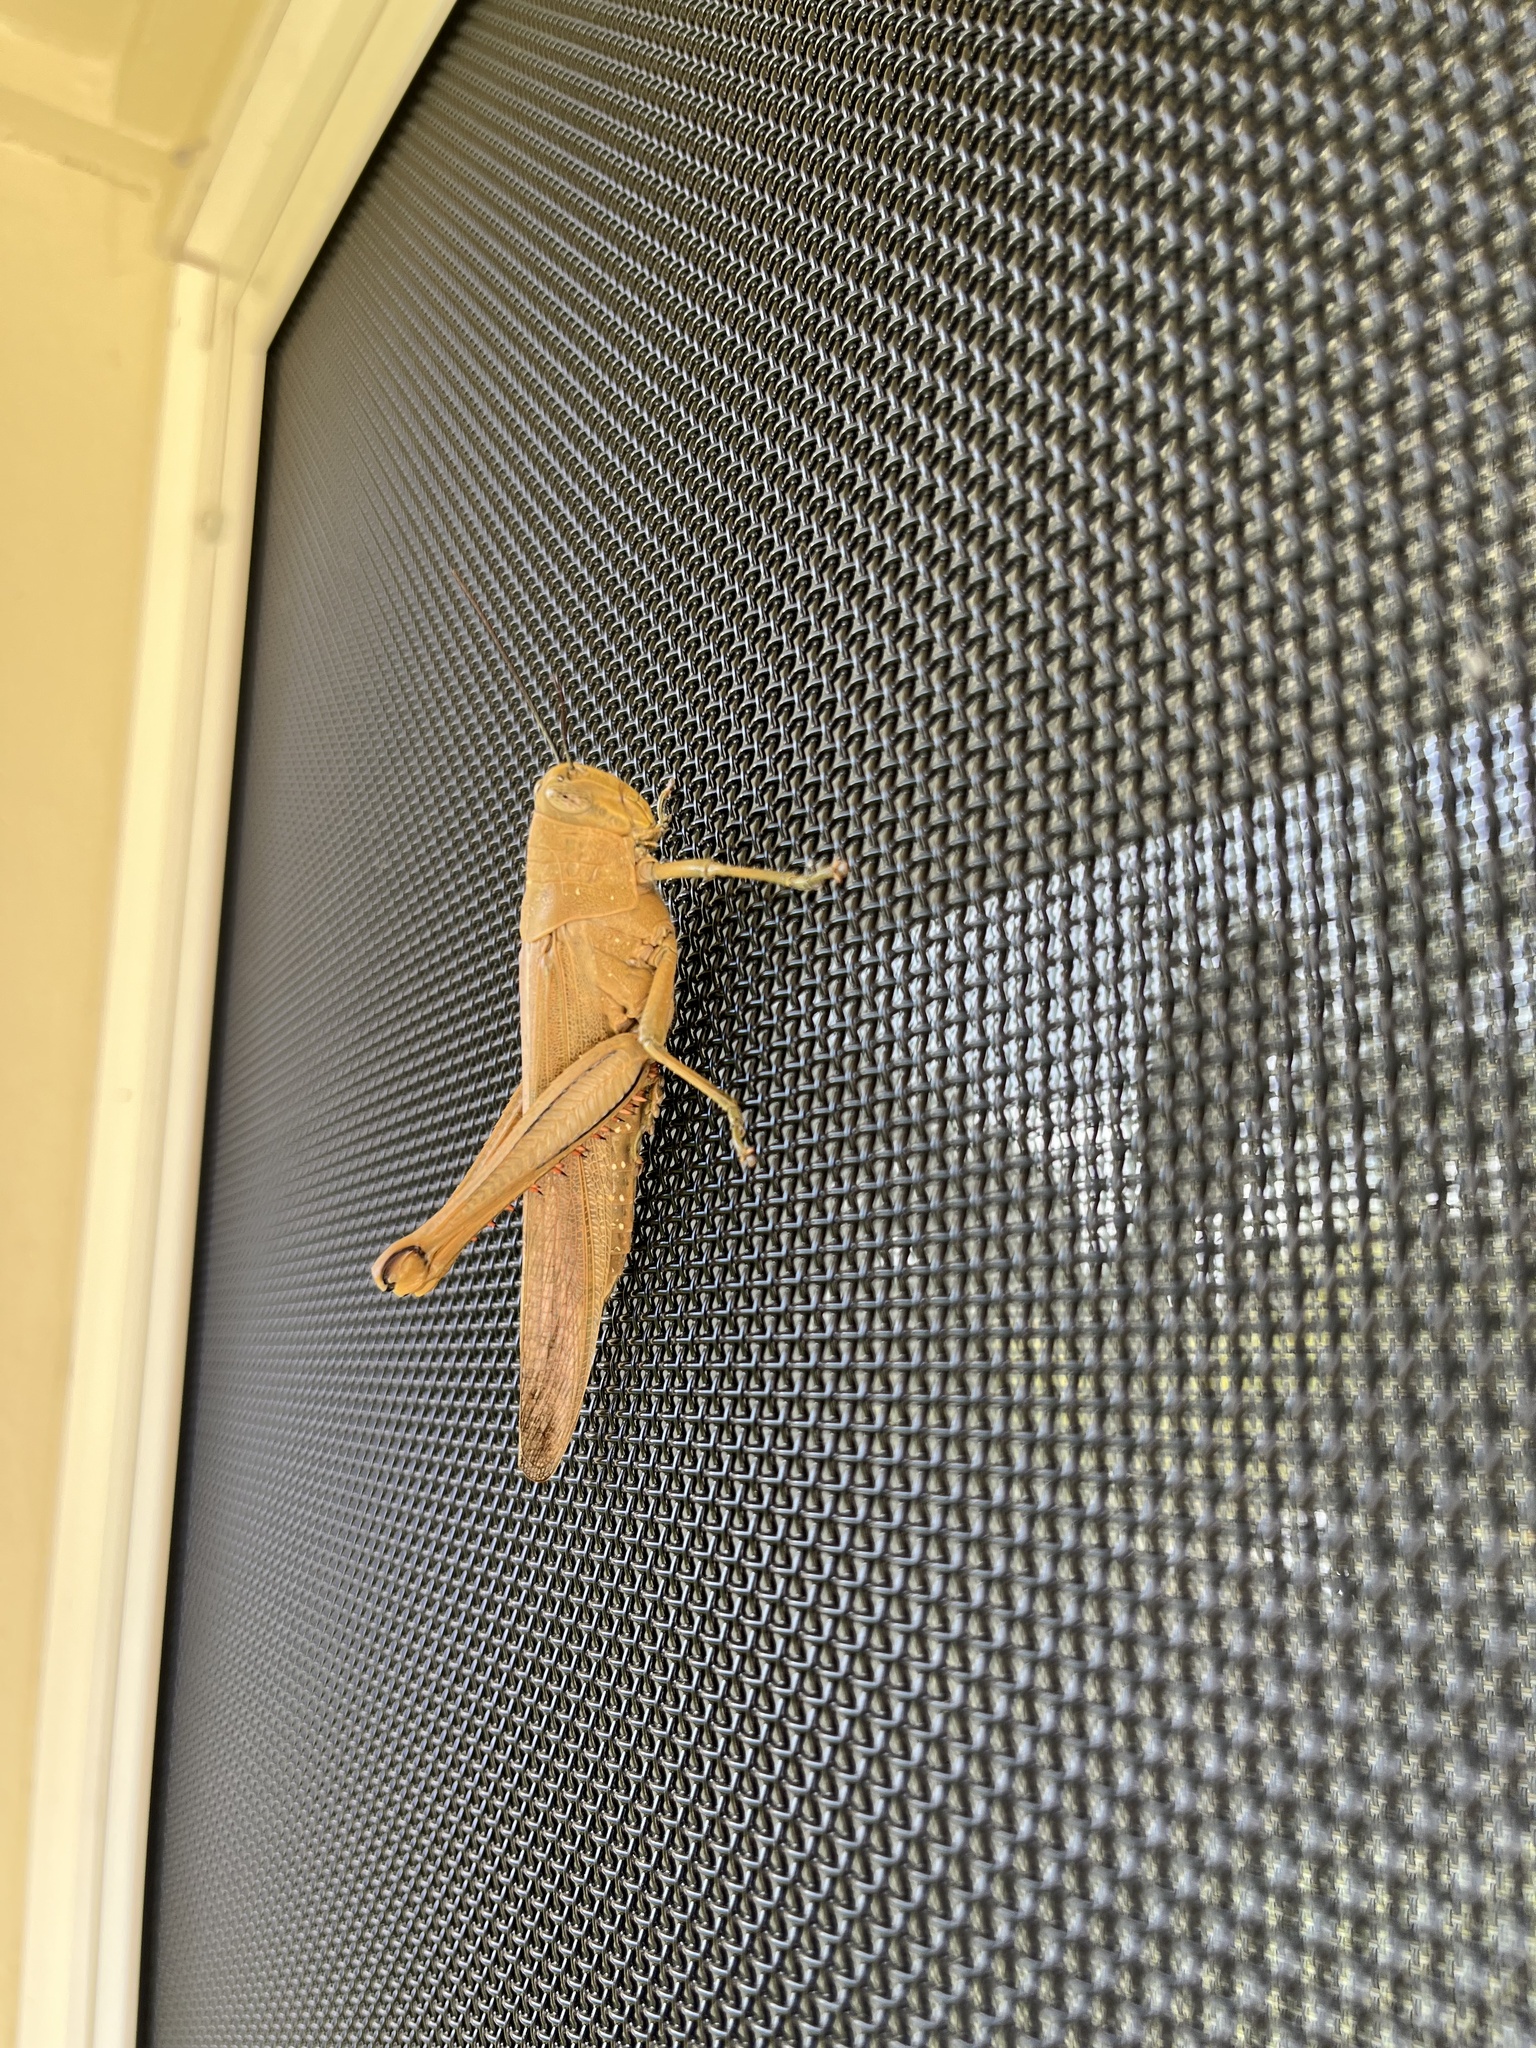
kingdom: Animalia
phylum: Arthropoda
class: Insecta
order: Orthoptera
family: Acrididae
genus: Valanga
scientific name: Valanga irregularis
